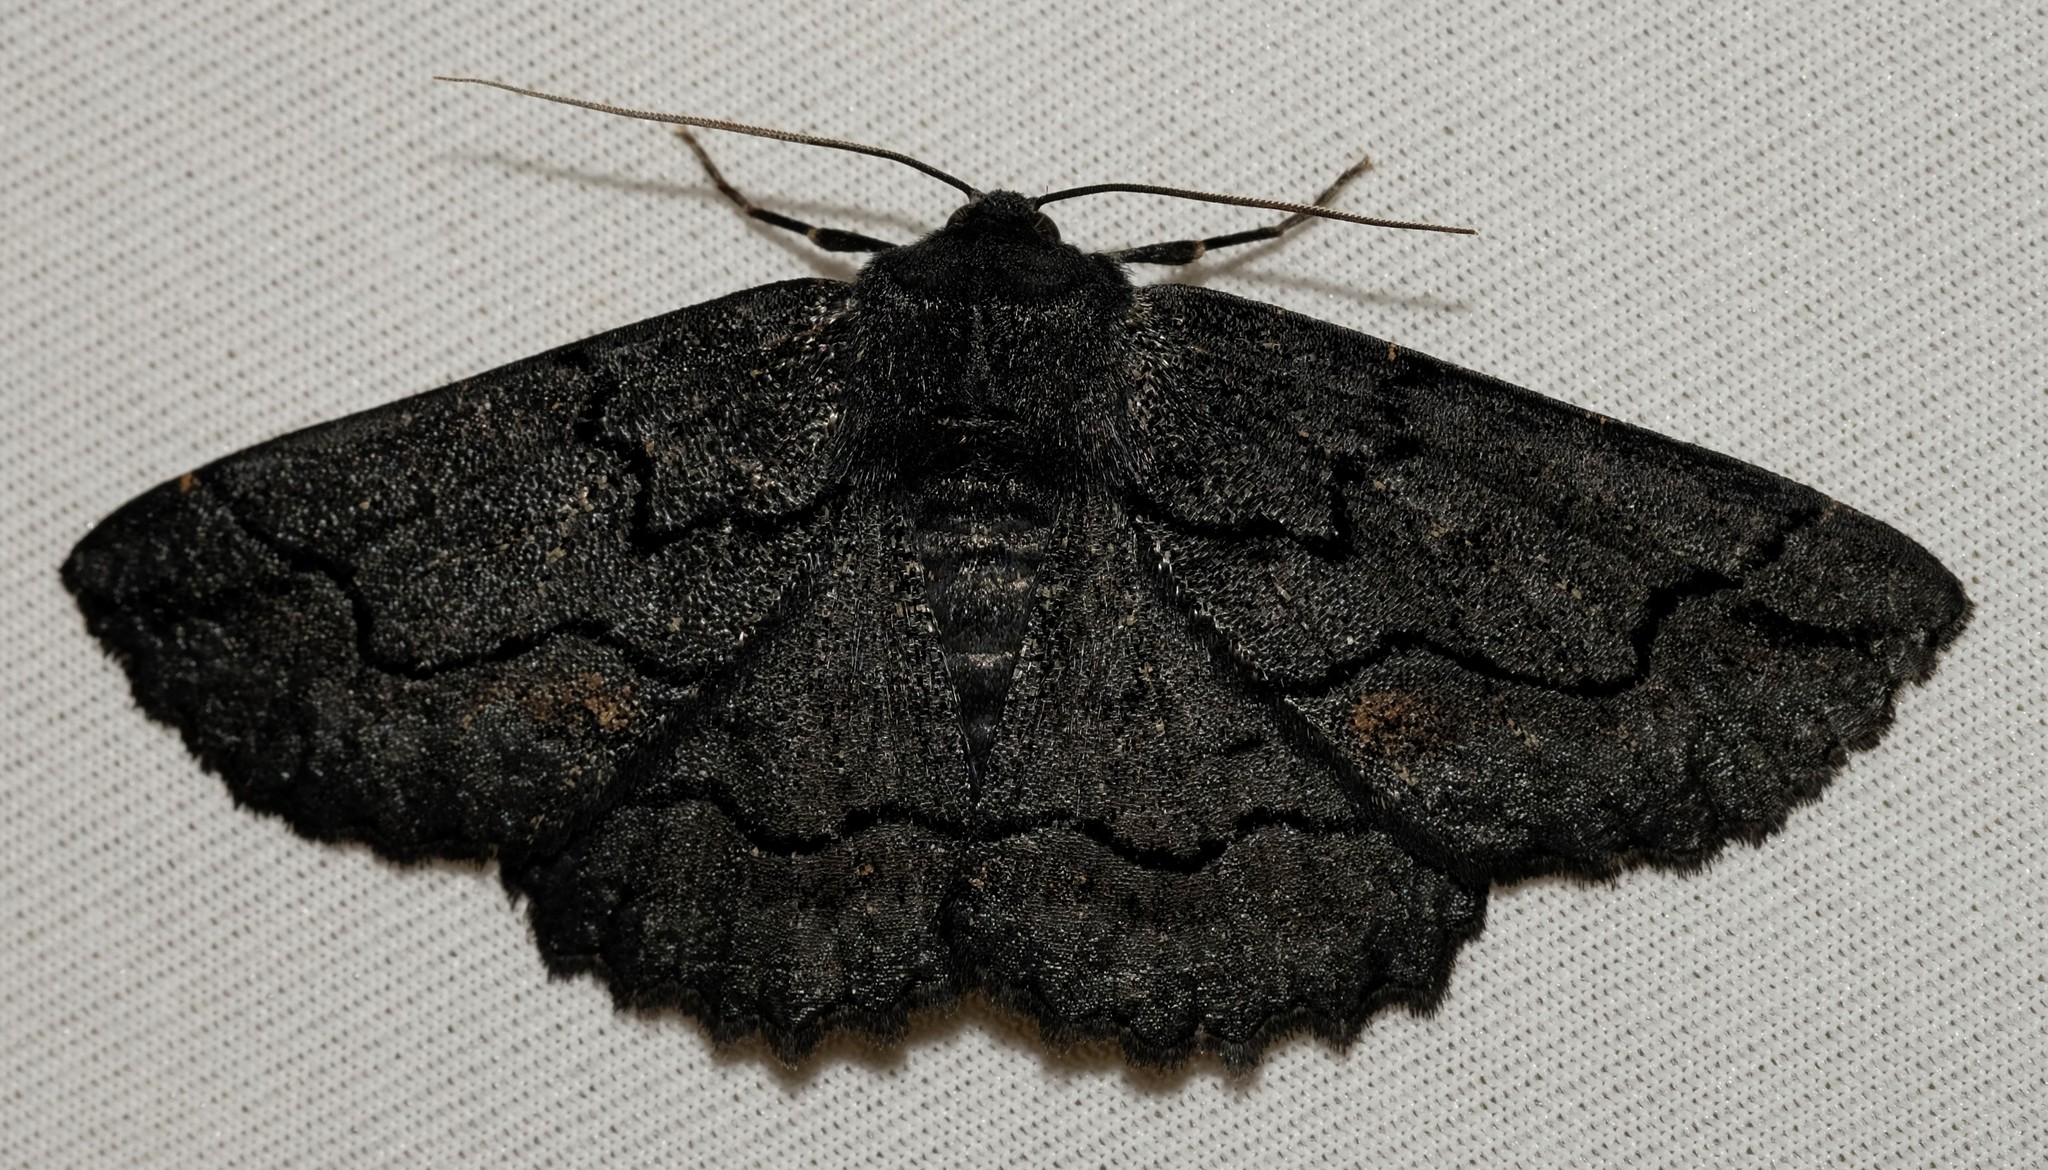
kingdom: Animalia
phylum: Arthropoda
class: Insecta
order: Lepidoptera
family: Geometridae
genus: Melanodes
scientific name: Melanodes anthracitaria
